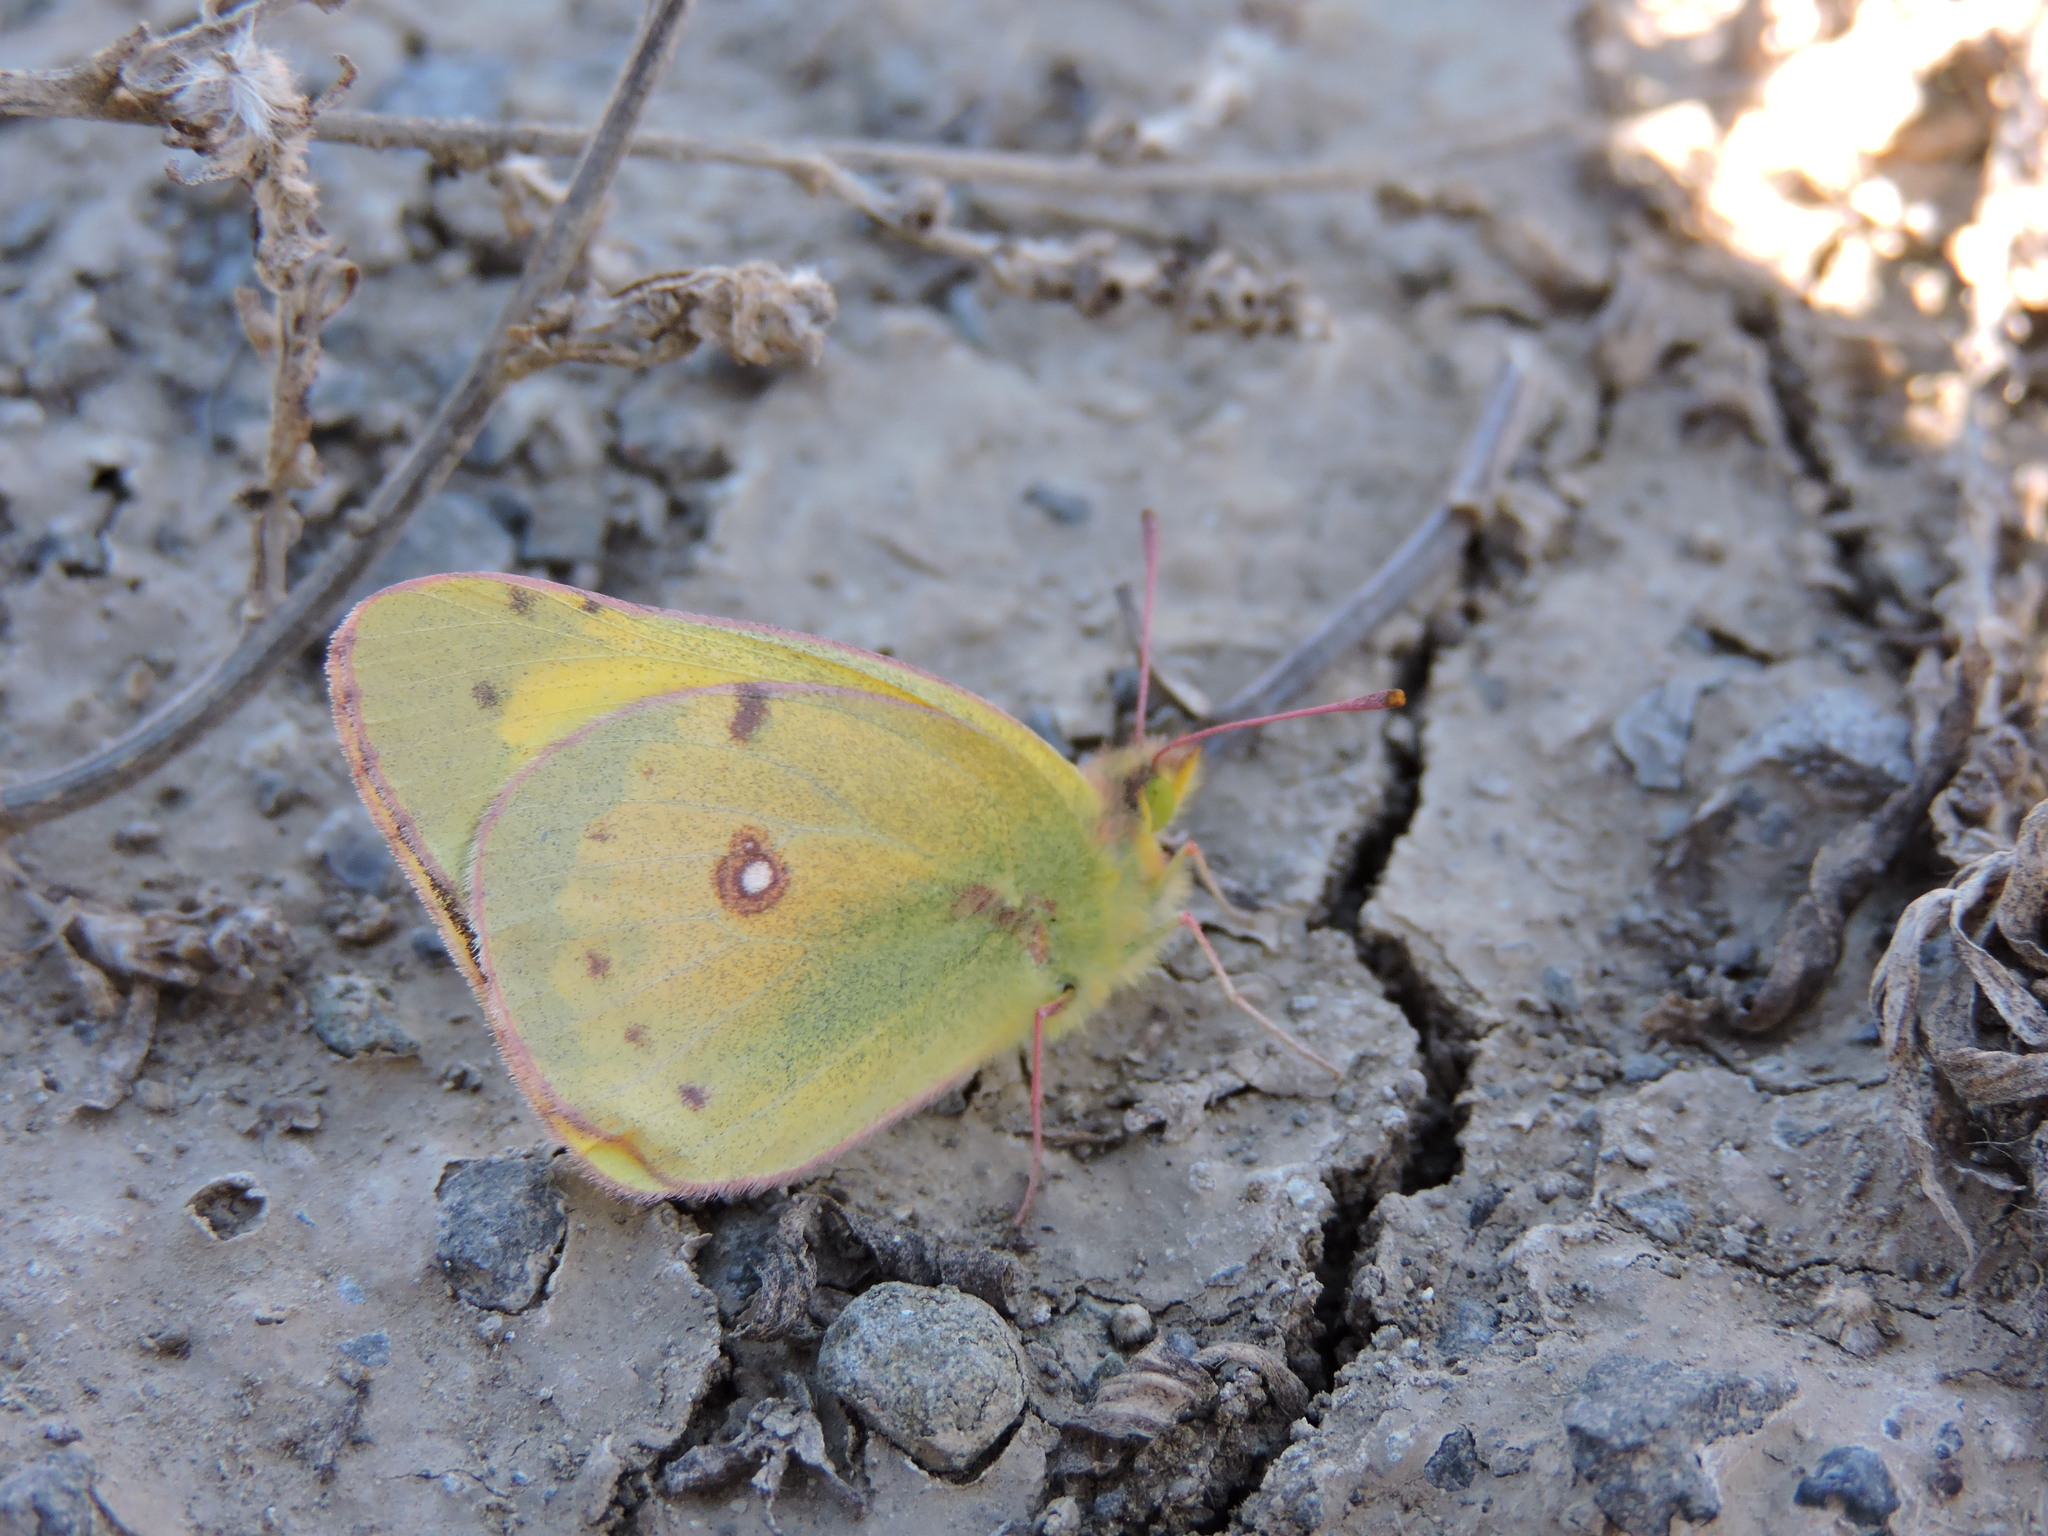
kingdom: Animalia
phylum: Arthropoda
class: Insecta
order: Lepidoptera
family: Pieridae
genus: Colias
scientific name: Colias eurytheme
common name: Alfalfa butterfly
